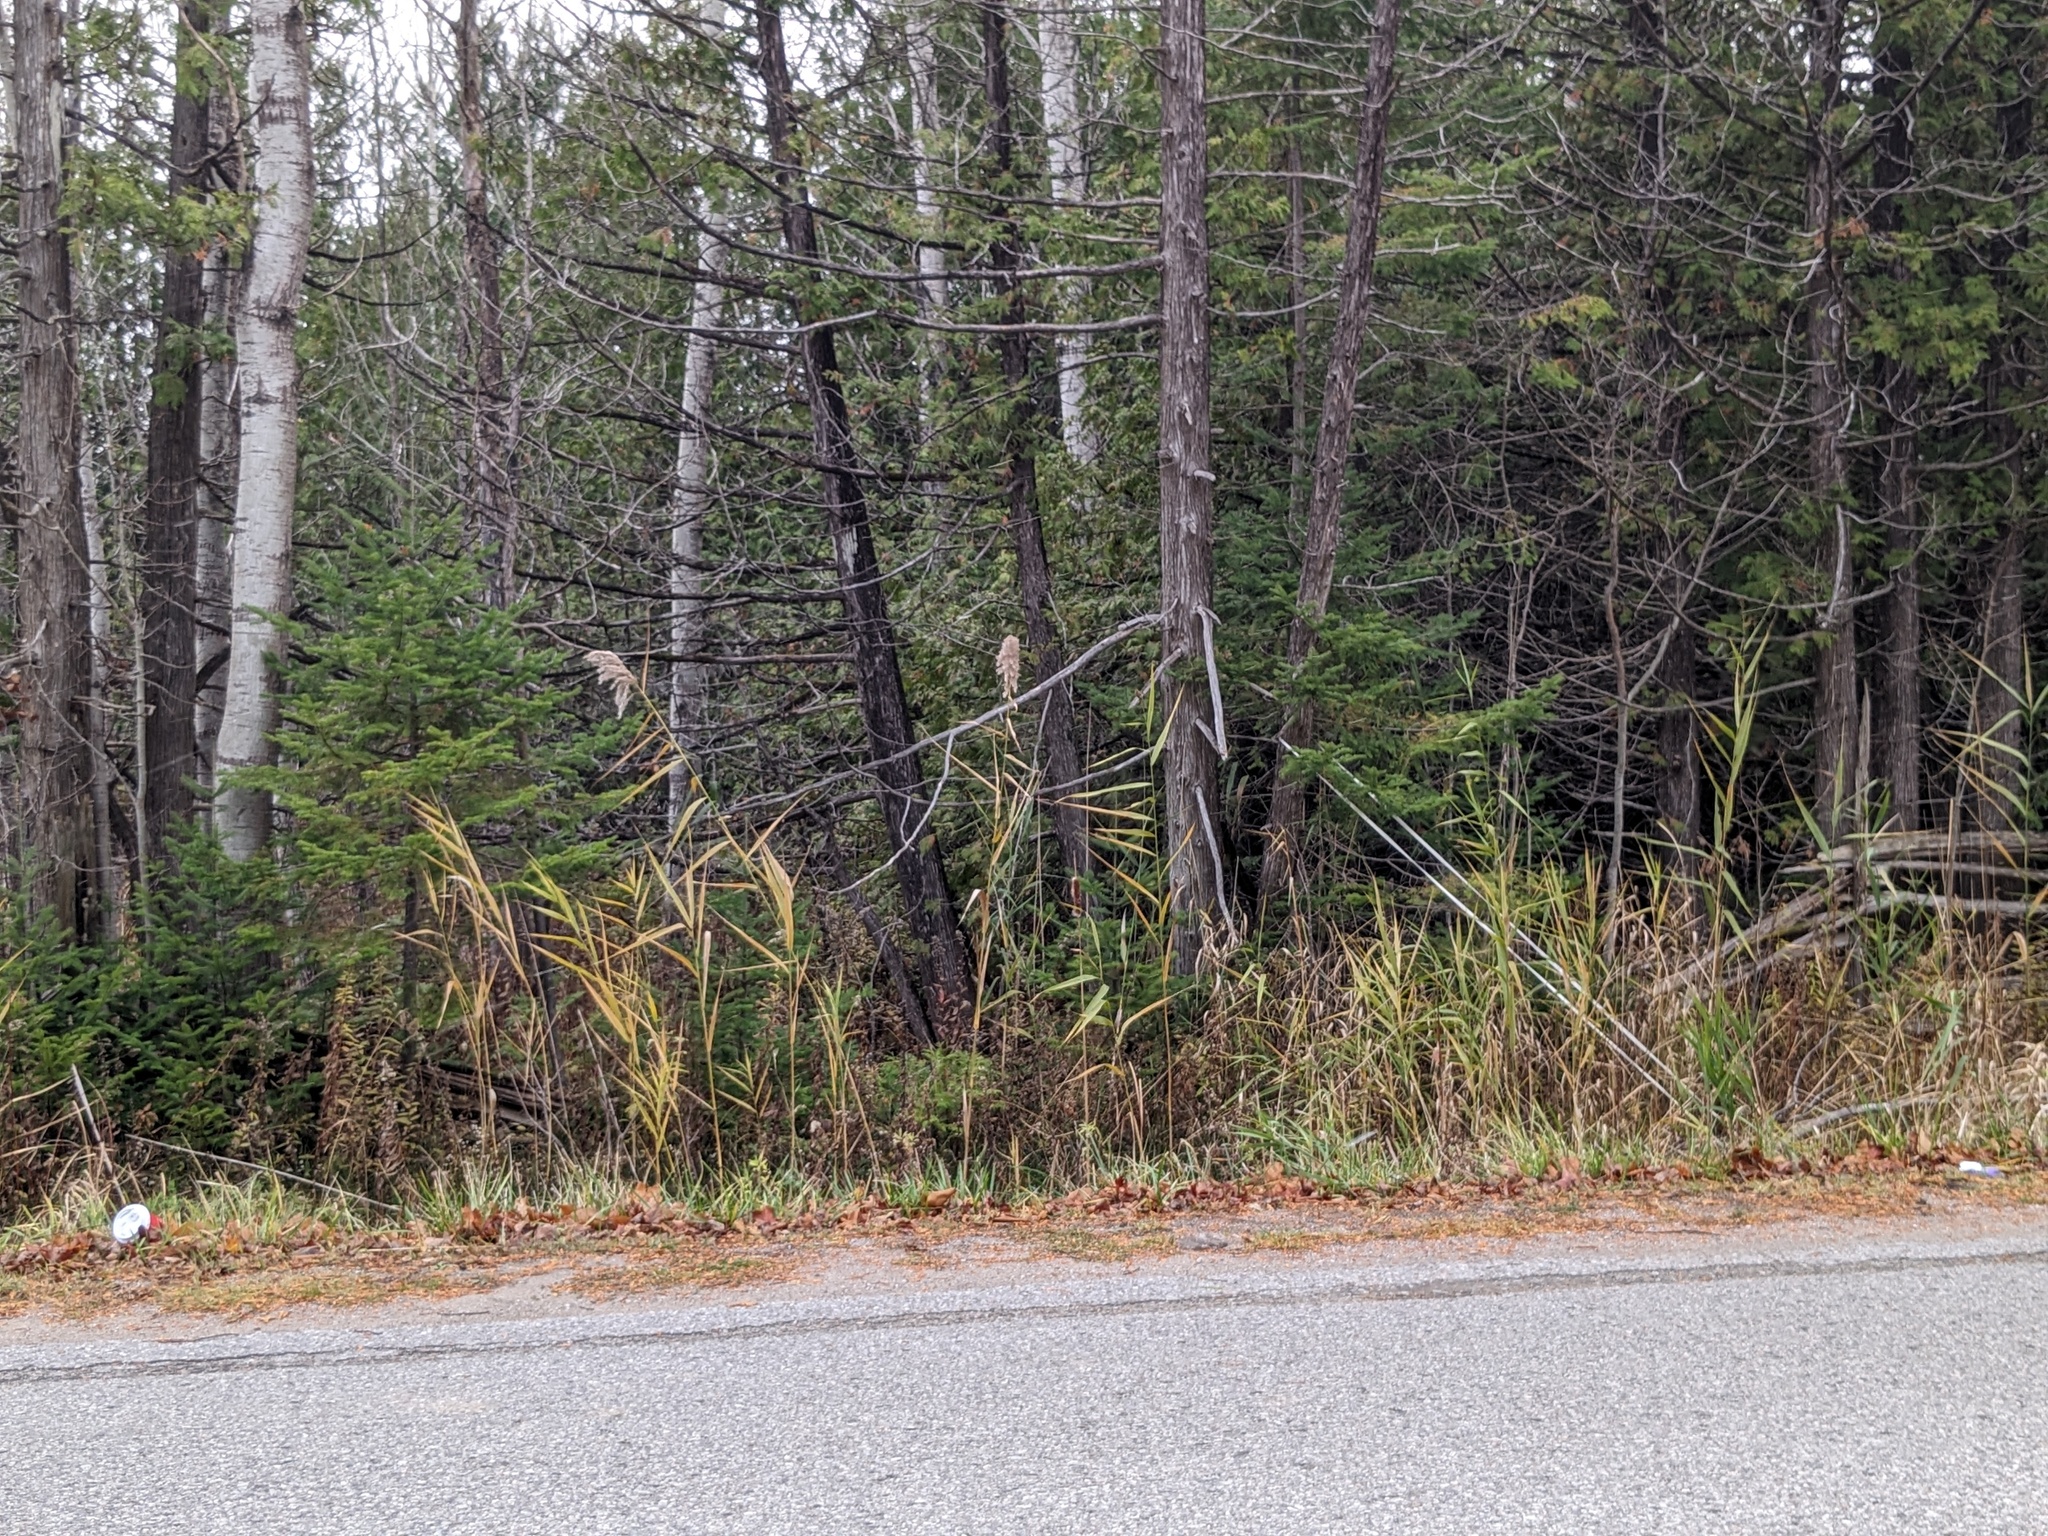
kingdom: Plantae
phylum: Tracheophyta
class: Liliopsida
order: Poales
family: Poaceae
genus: Phragmites
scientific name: Phragmites australis
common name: Common reed
